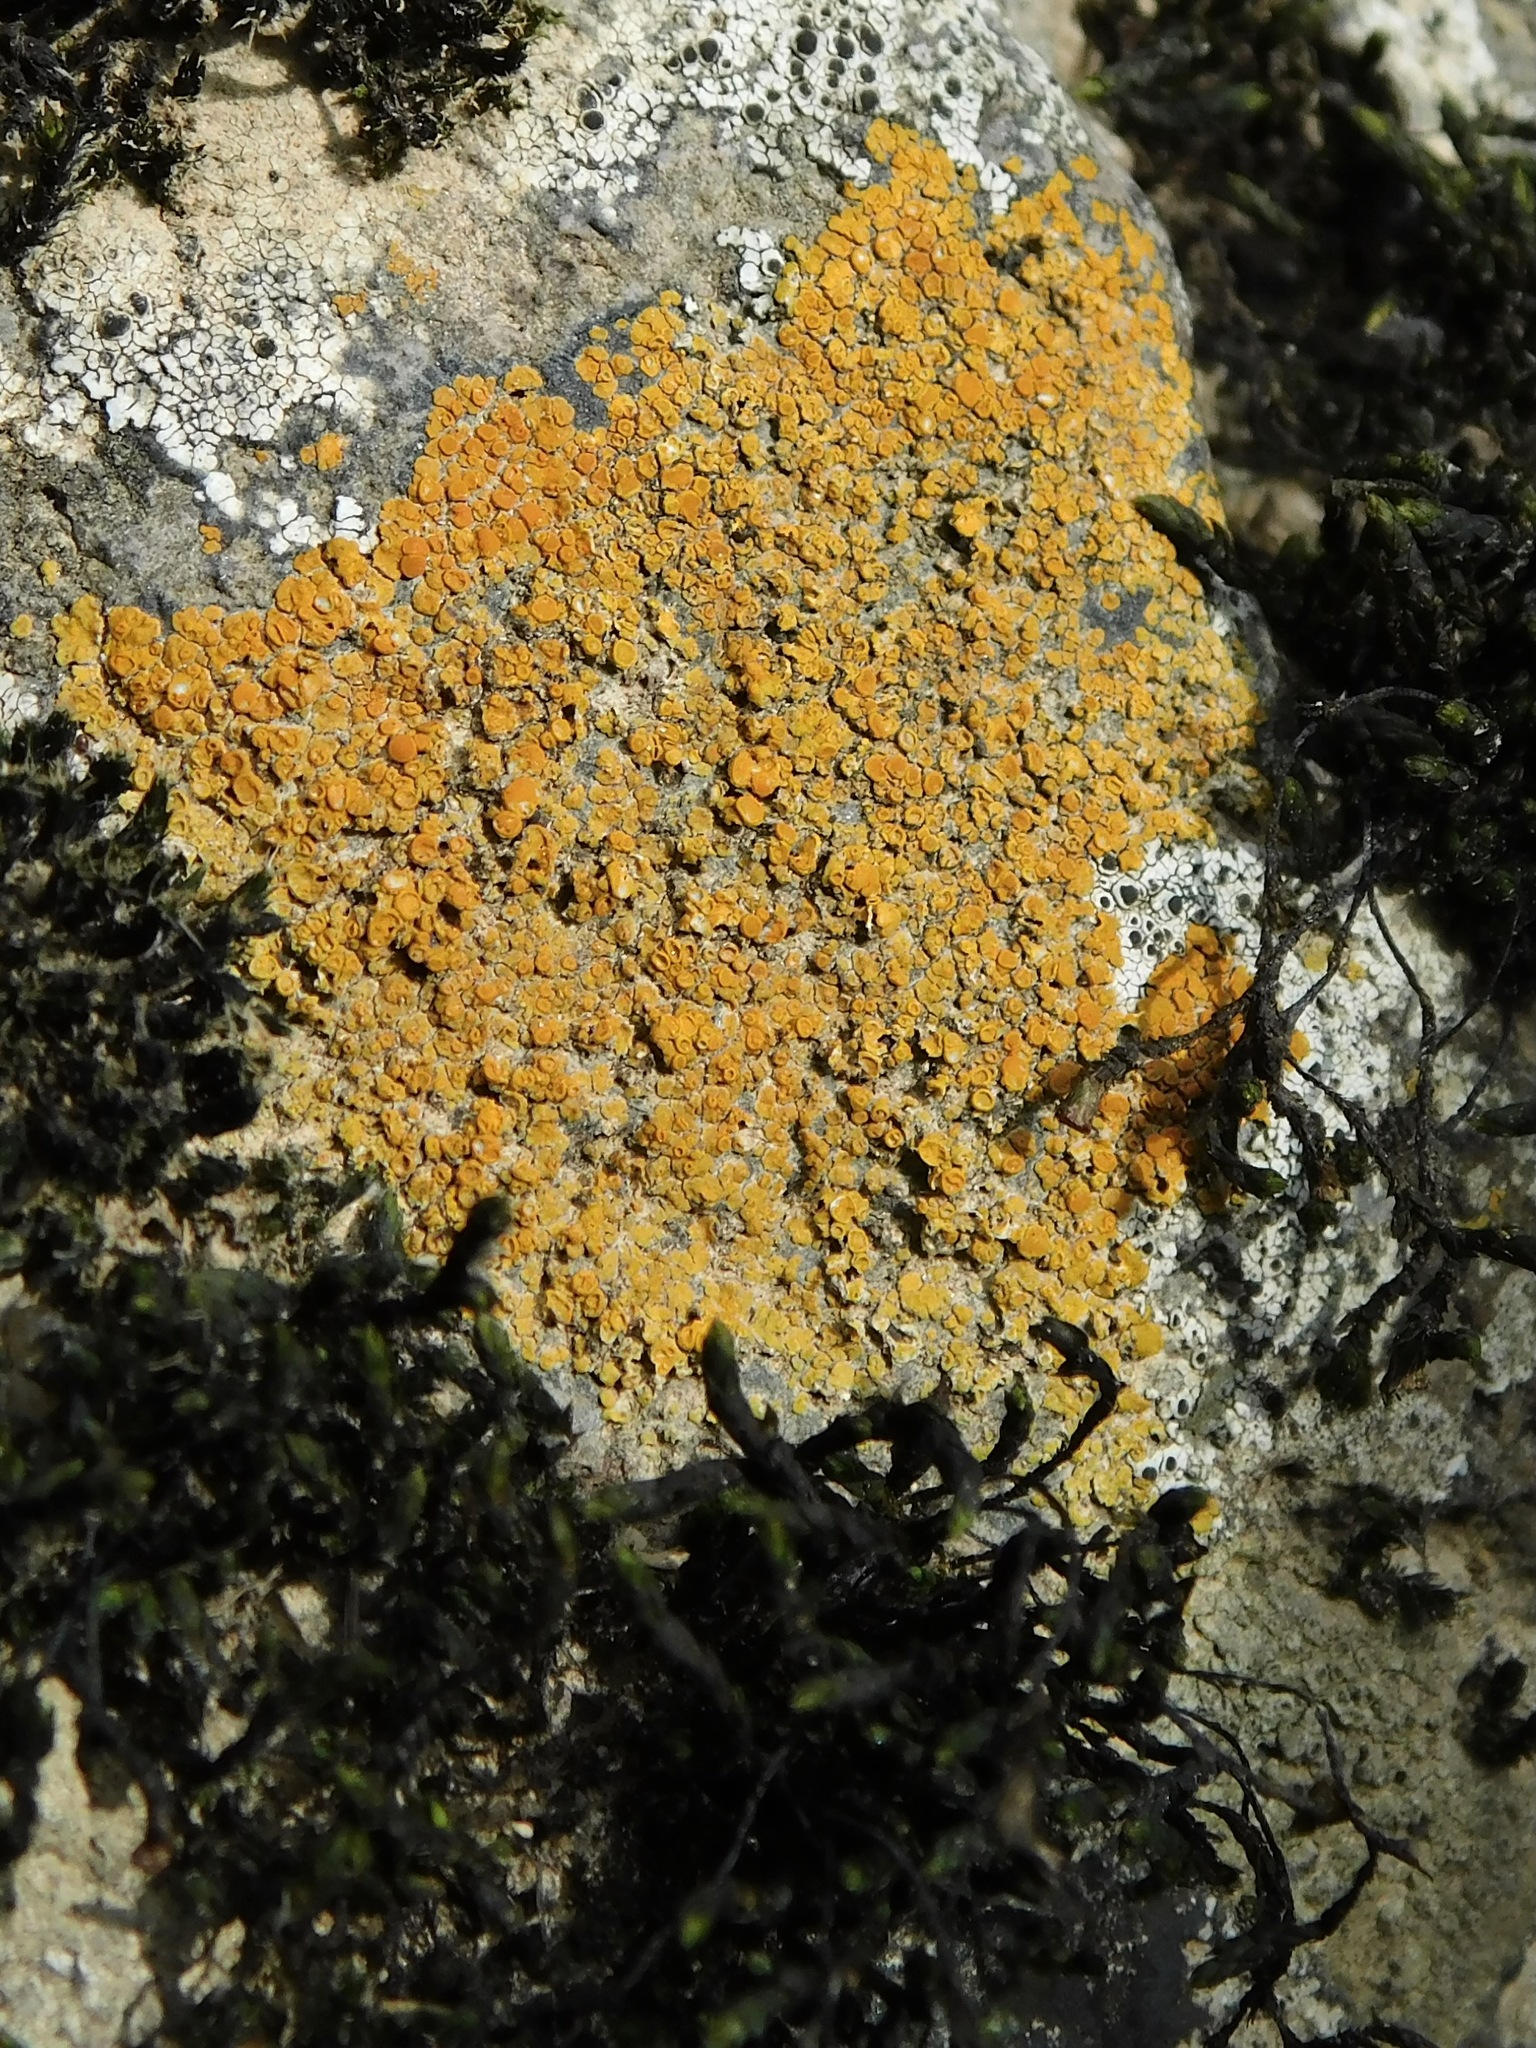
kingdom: Fungi
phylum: Ascomycota
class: Lecanoromycetes
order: Teloschistales
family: Teloschistaceae
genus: Squamulea
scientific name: Squamulea subsoluta
